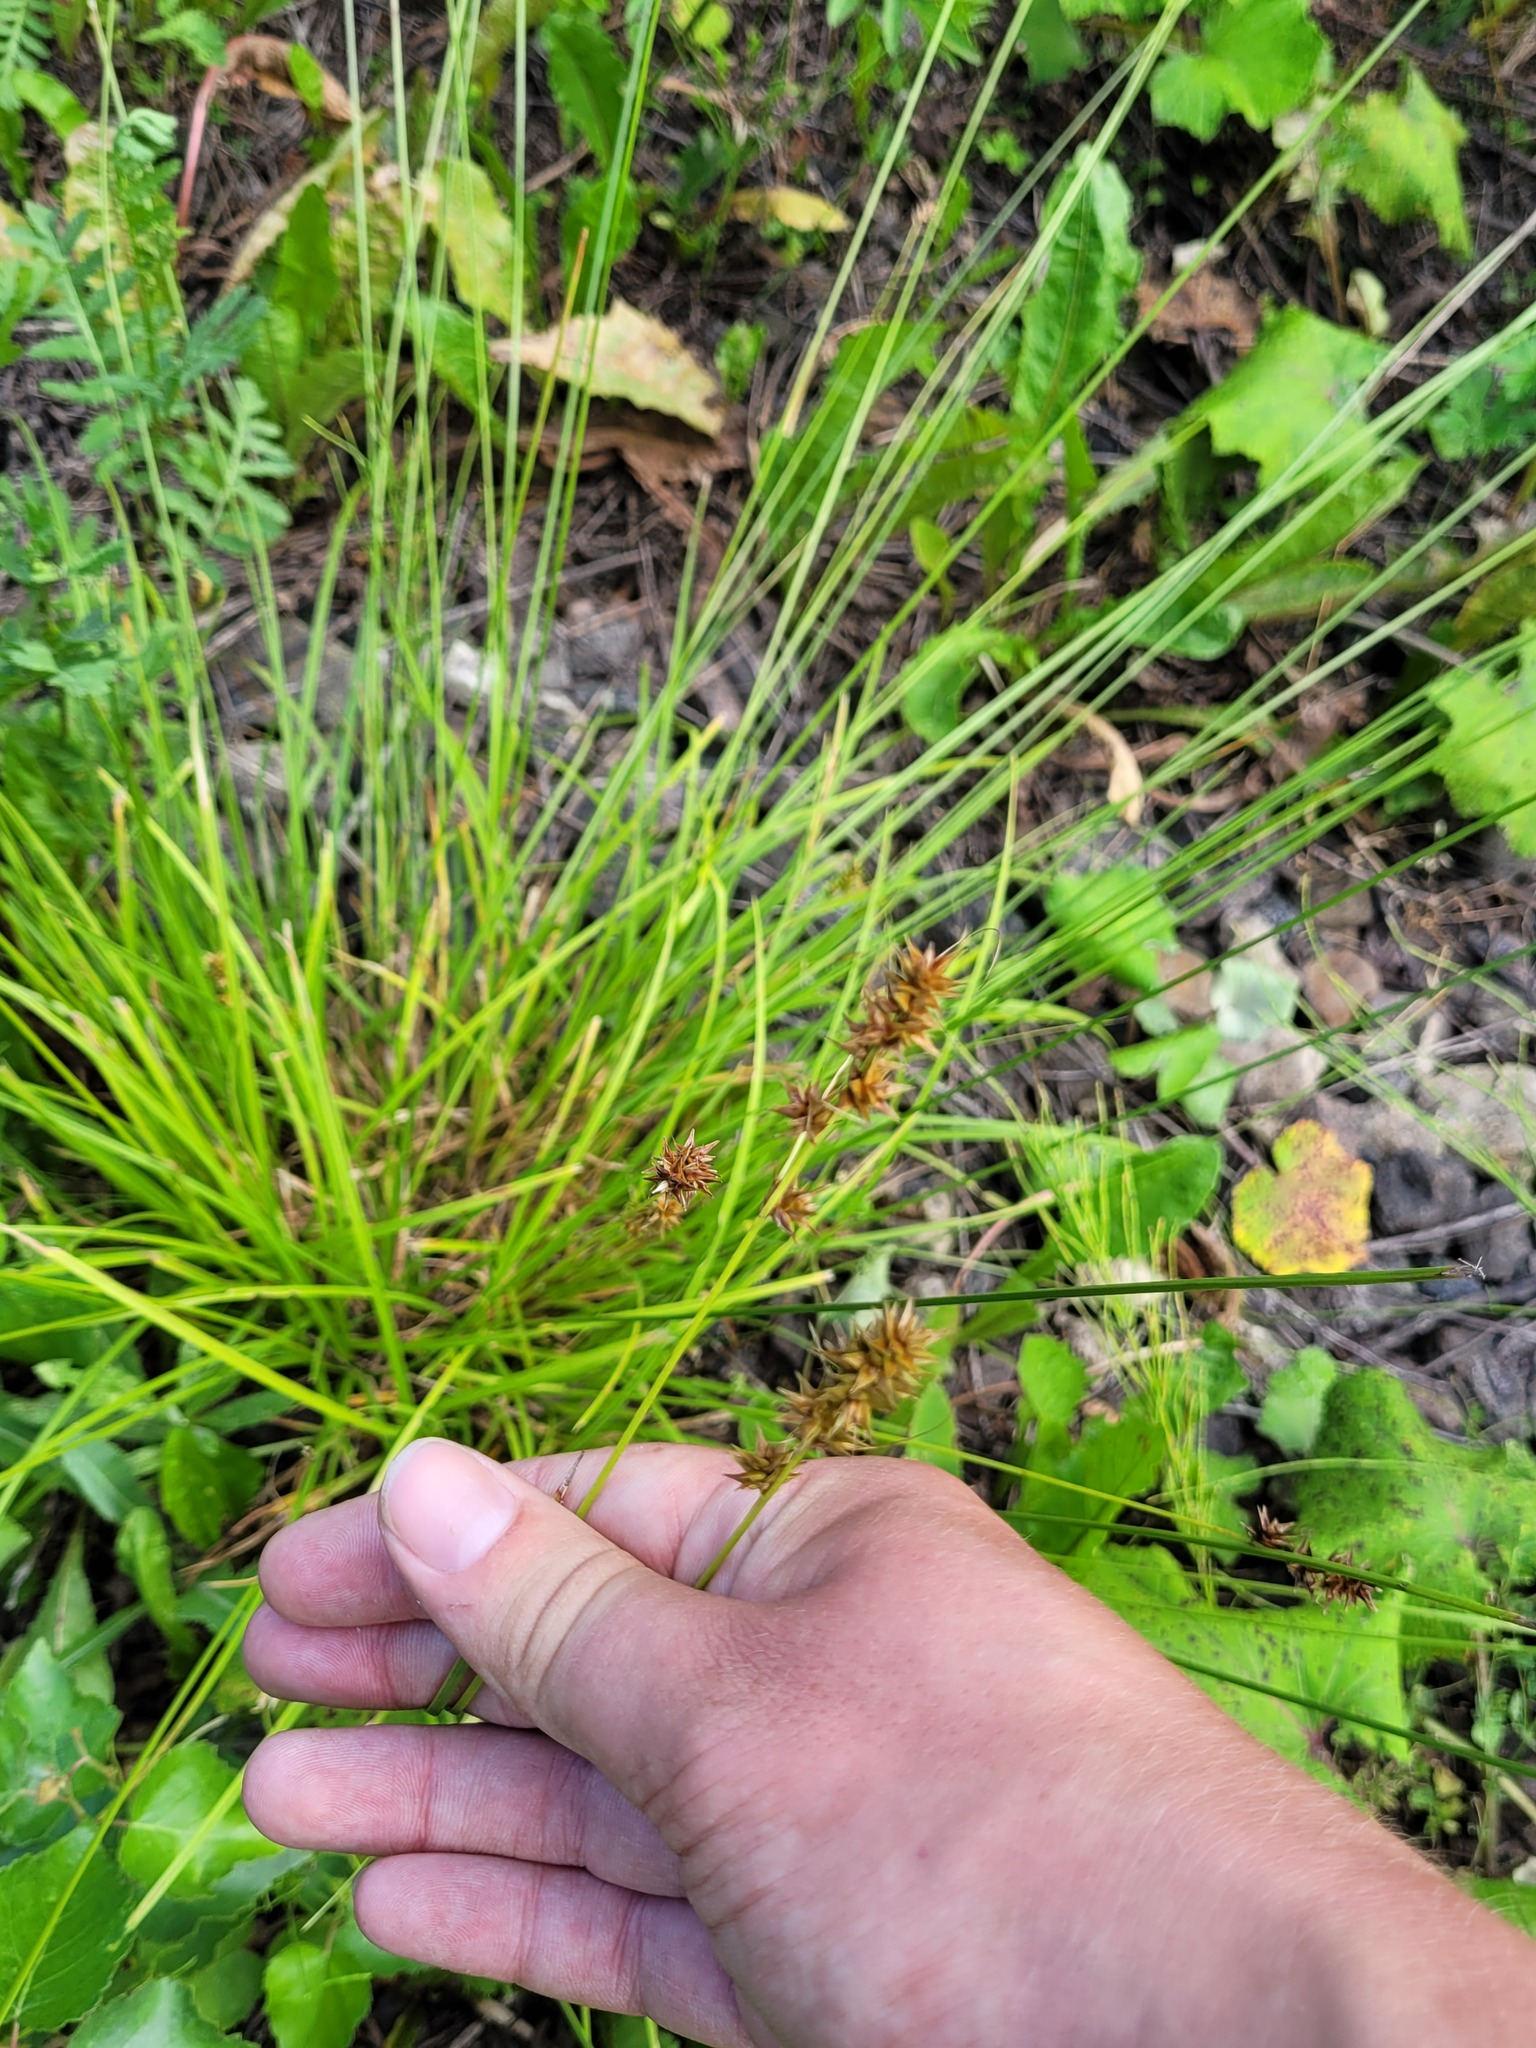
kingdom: Plantae
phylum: Tracheophyta
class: Liliopsida
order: Poales
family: Cyperaceae
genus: Carex
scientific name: Carex muricata
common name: Rough sedge
